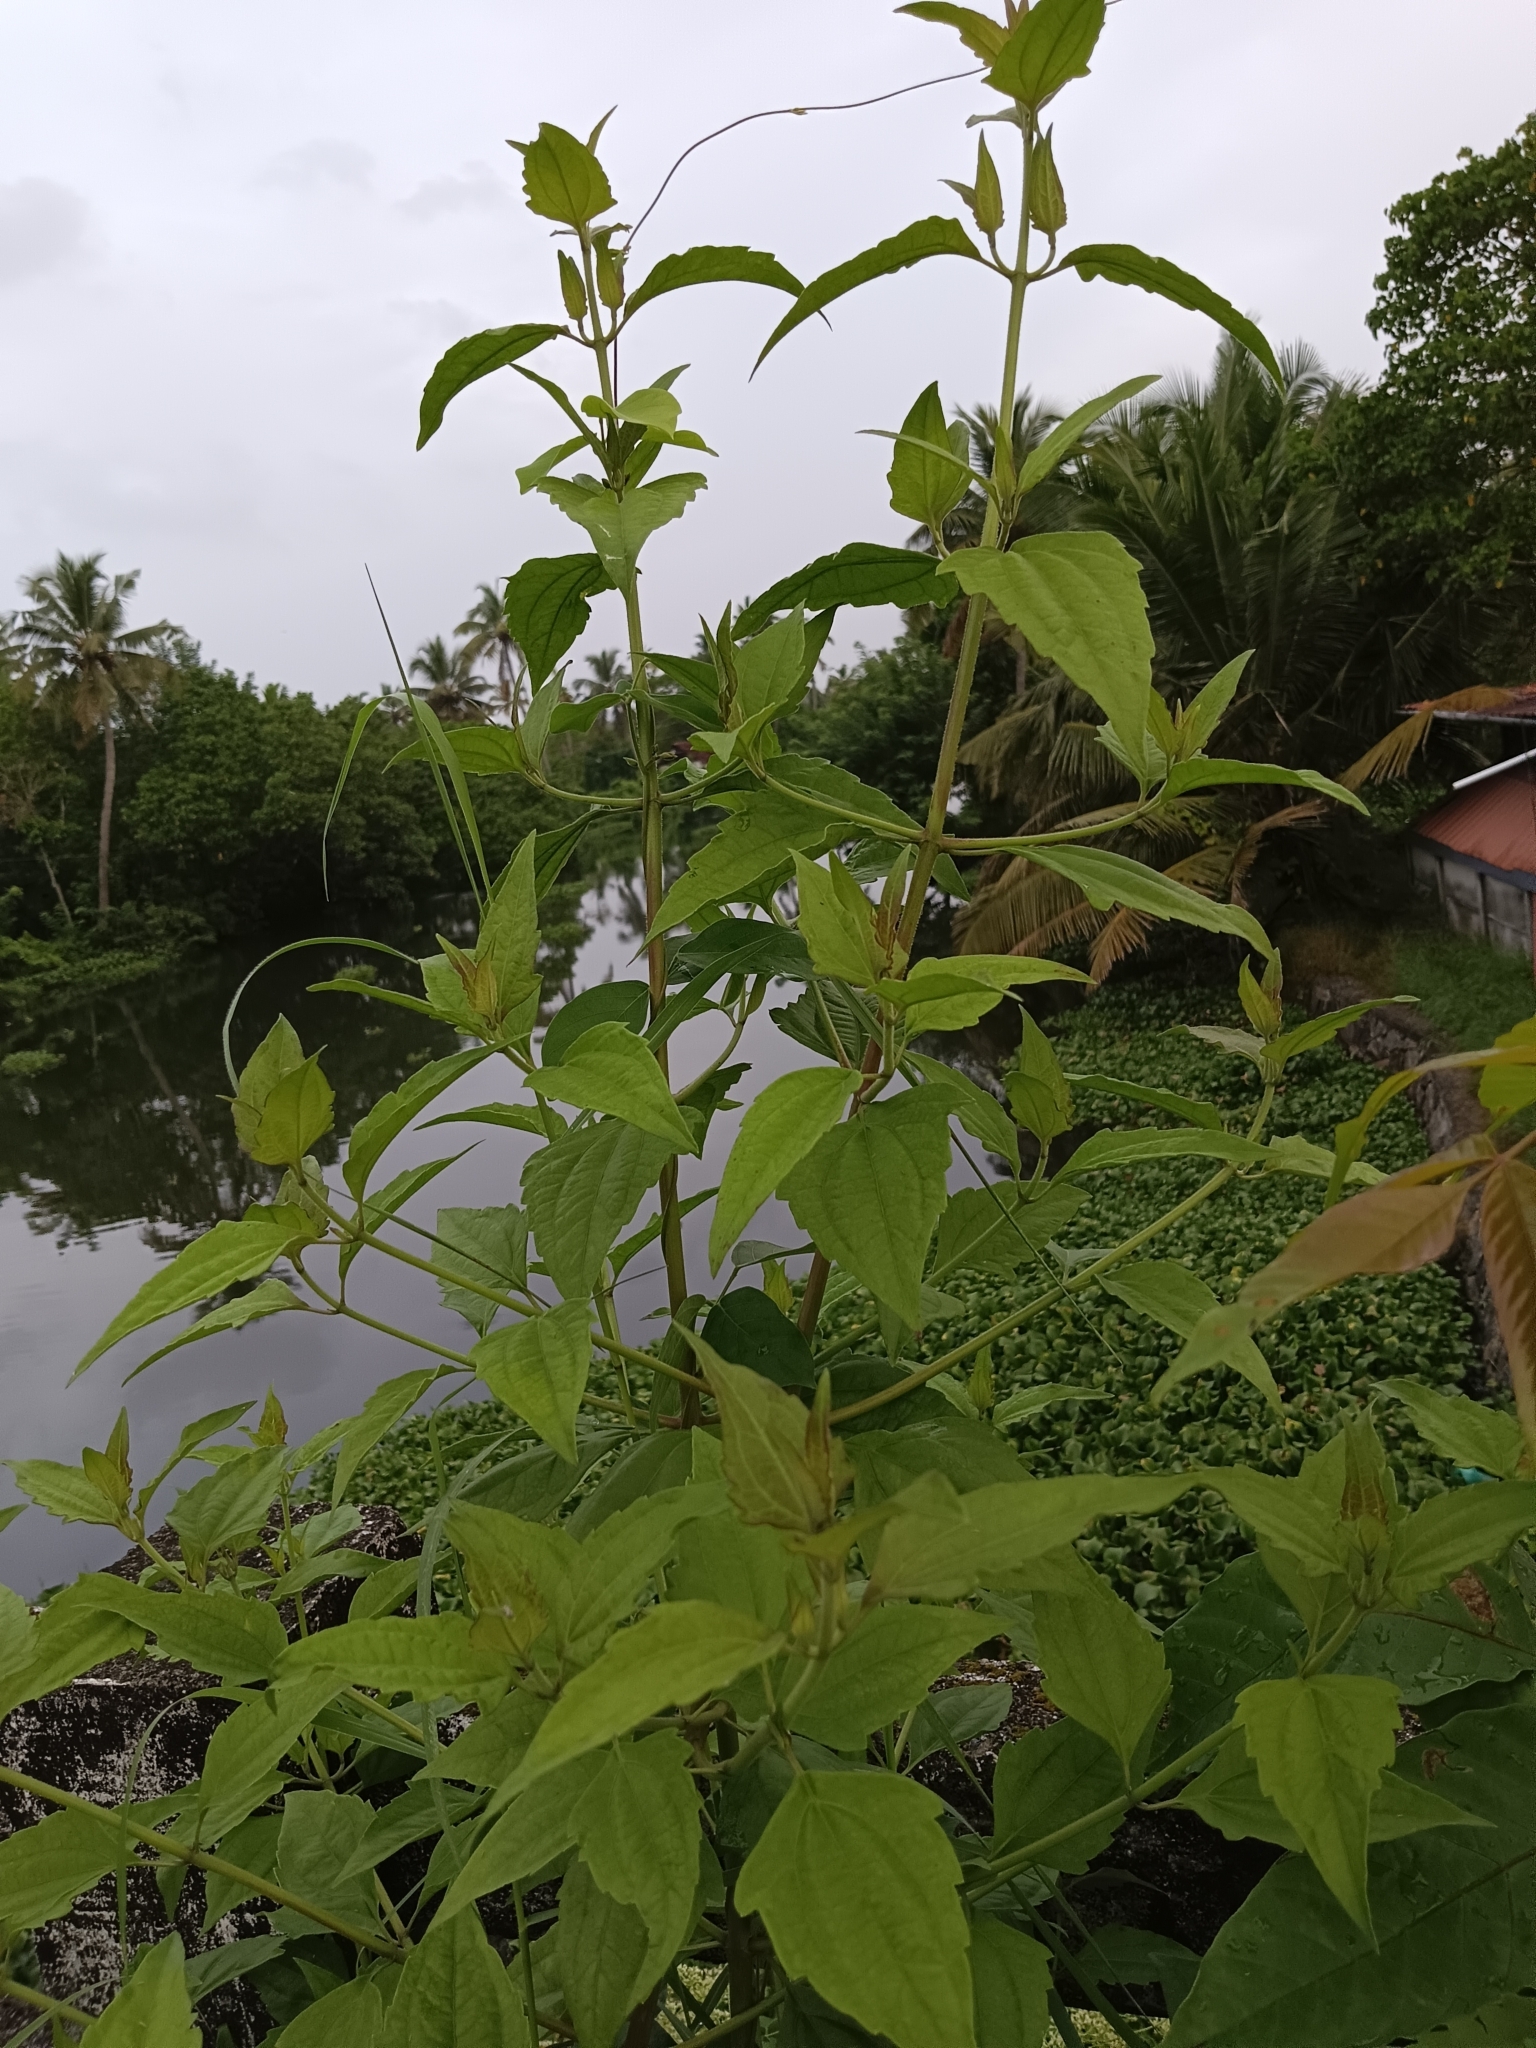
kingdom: Plantae
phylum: Tracheophyta
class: Magnoliopsida
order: Asterales
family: Asteraceae
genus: Chromolaena
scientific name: Chromolaena odorata
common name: Siamweed
